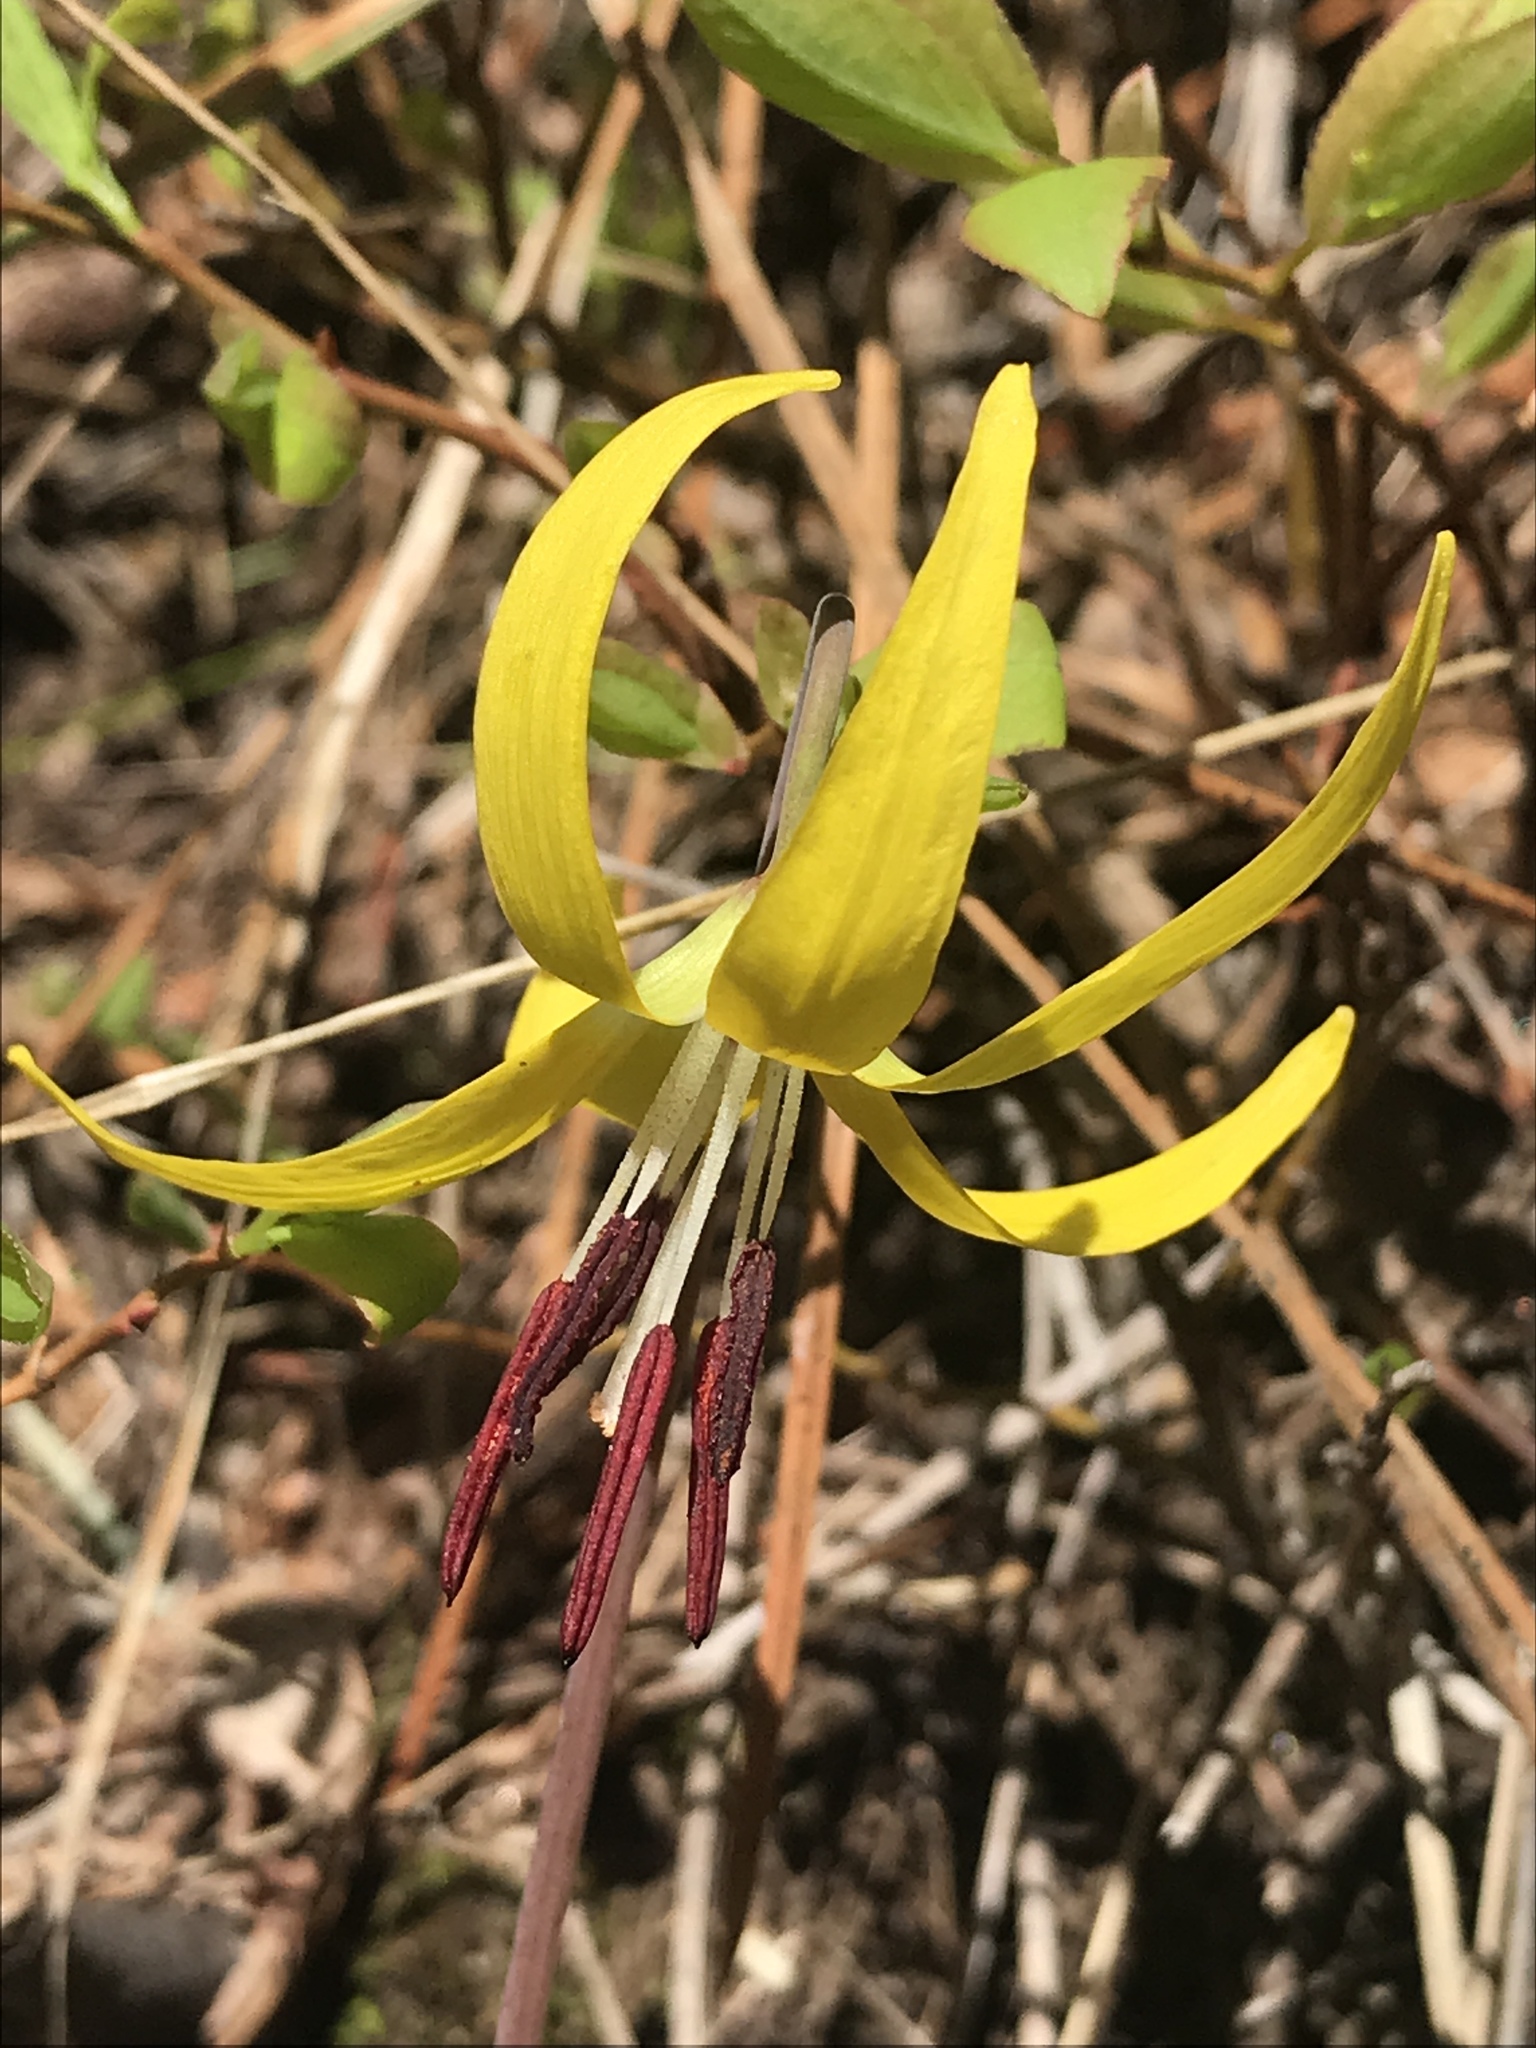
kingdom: Plantae
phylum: Tracheophyta
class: Liliopsida
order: Liliales
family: Liliaceae
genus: Erythronium
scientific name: Erythronium grandiflorum
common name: Avalanche-lily
